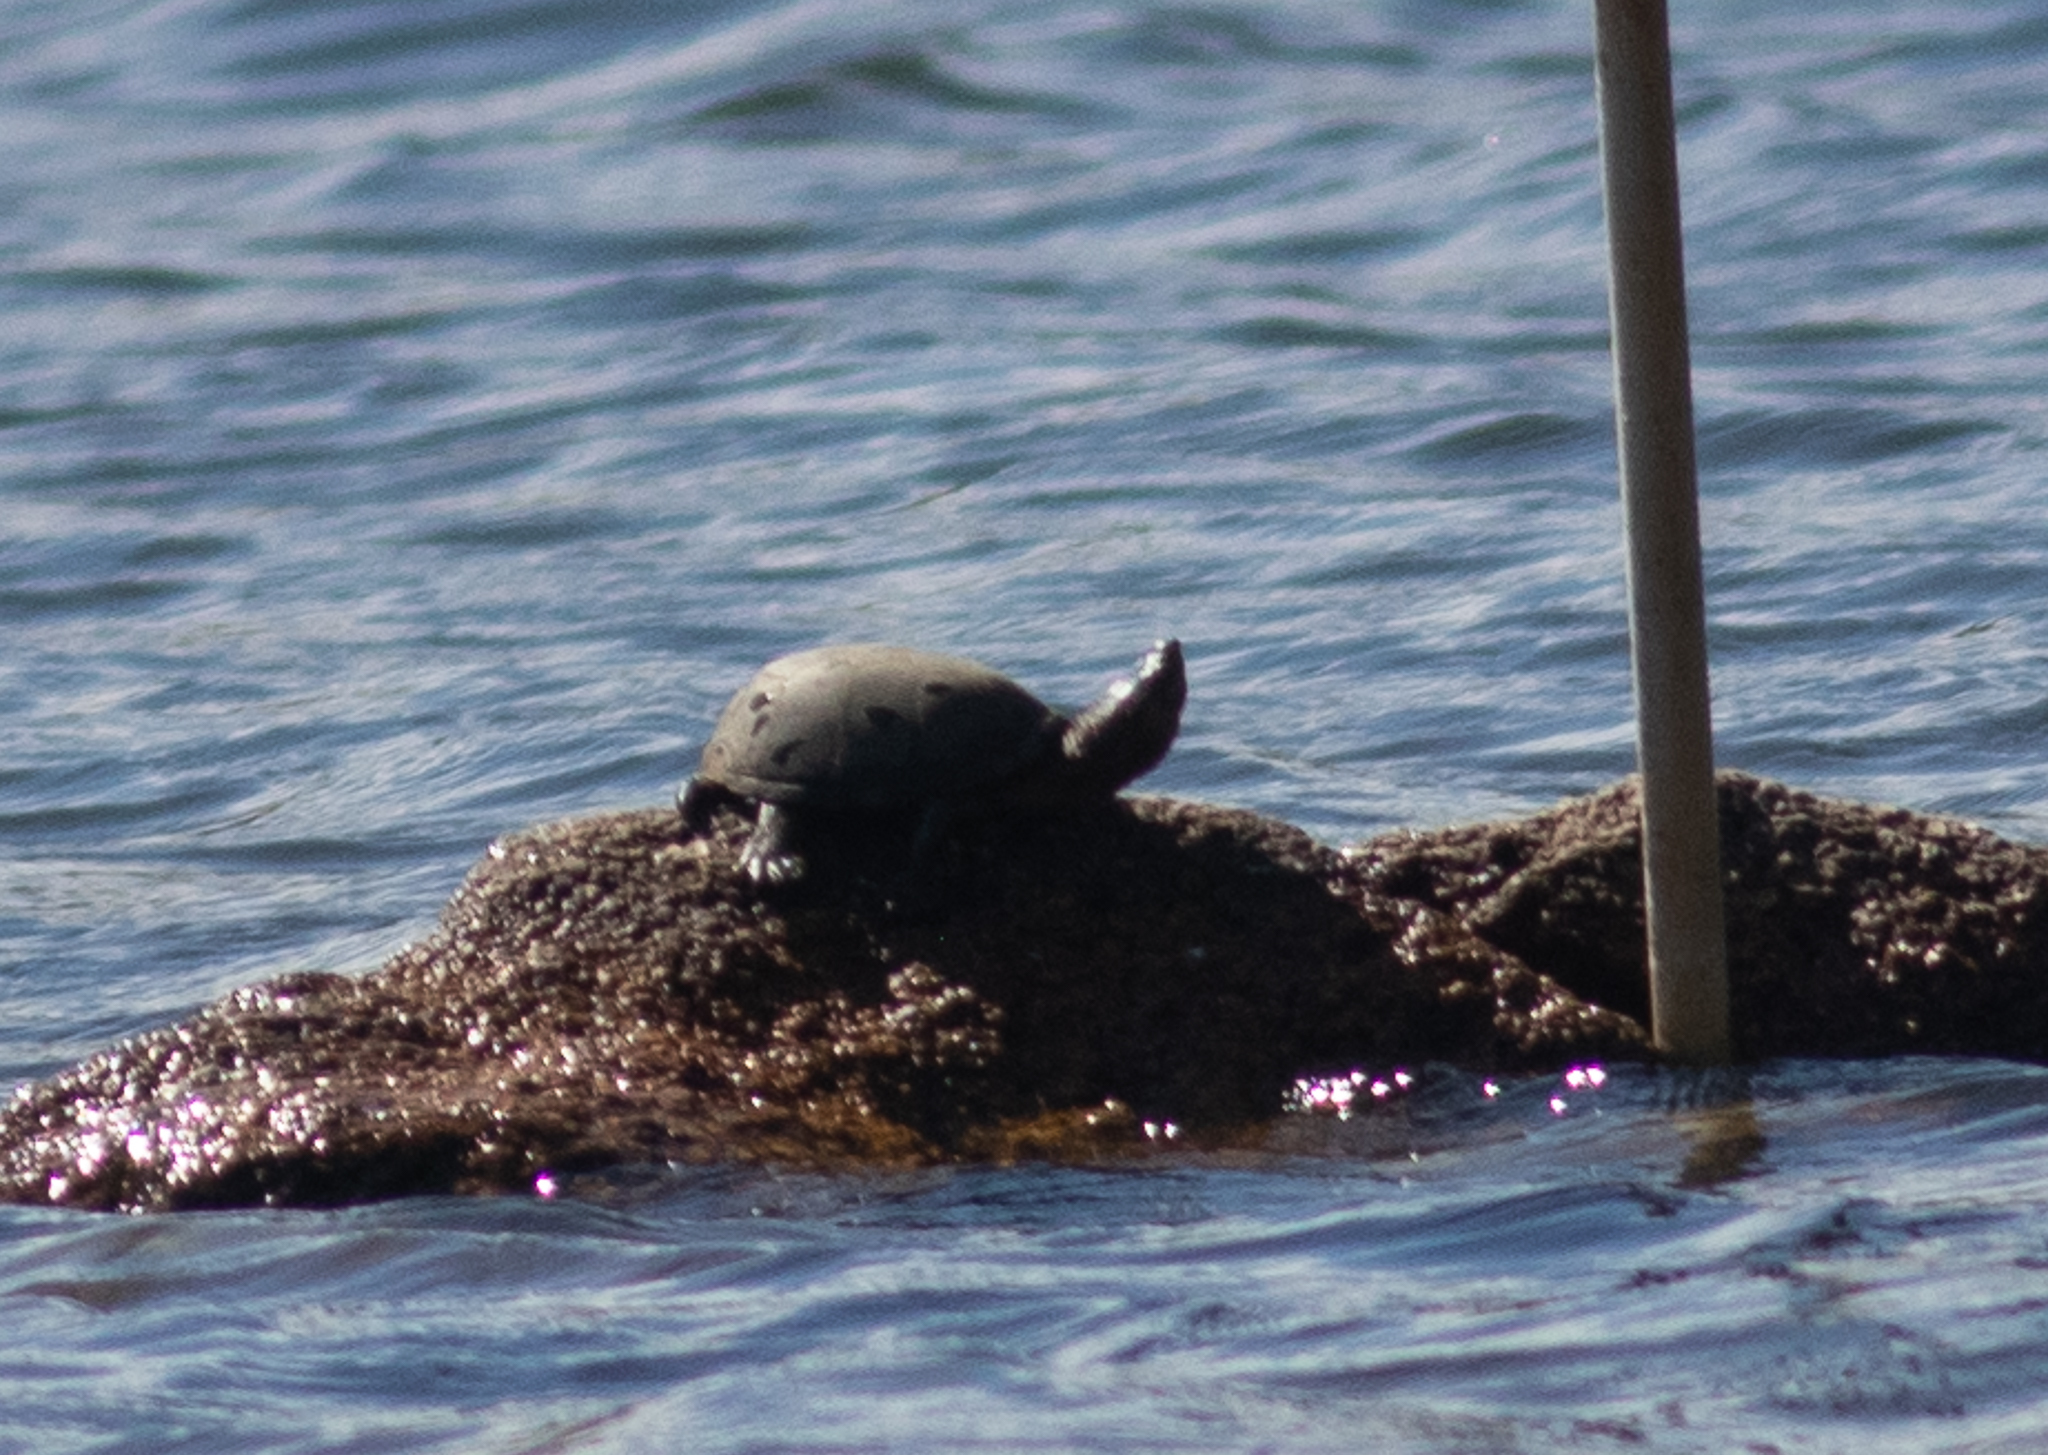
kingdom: Animalia
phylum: Chordata
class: Testudines
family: Kinosternidae
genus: Sternotherus
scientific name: Sternotherus odoratus
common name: Common musk turtle
